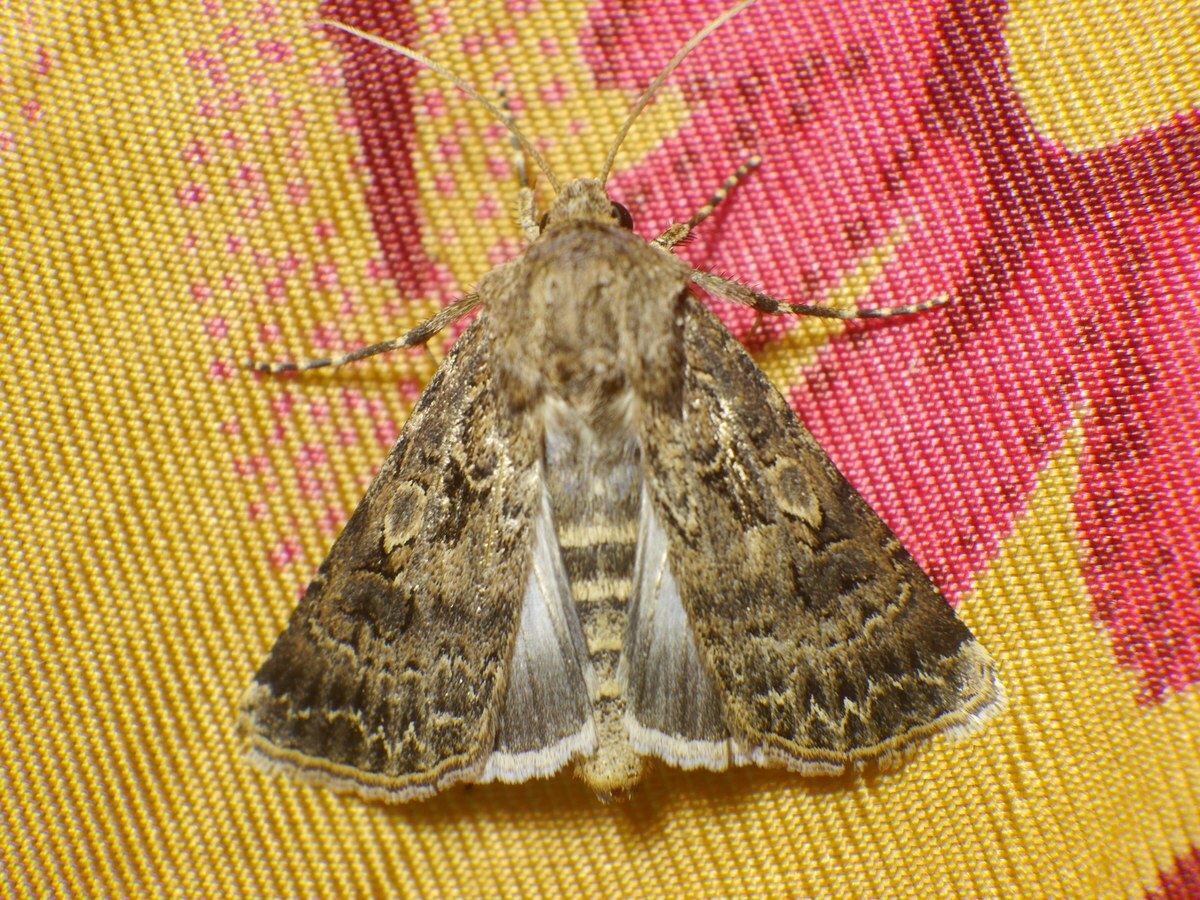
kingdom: Animalia
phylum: Arthropoda
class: Insecta
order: Lepidoptera
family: Noctuidae
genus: Agrotis
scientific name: Agrotis bigramma
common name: Great dart
